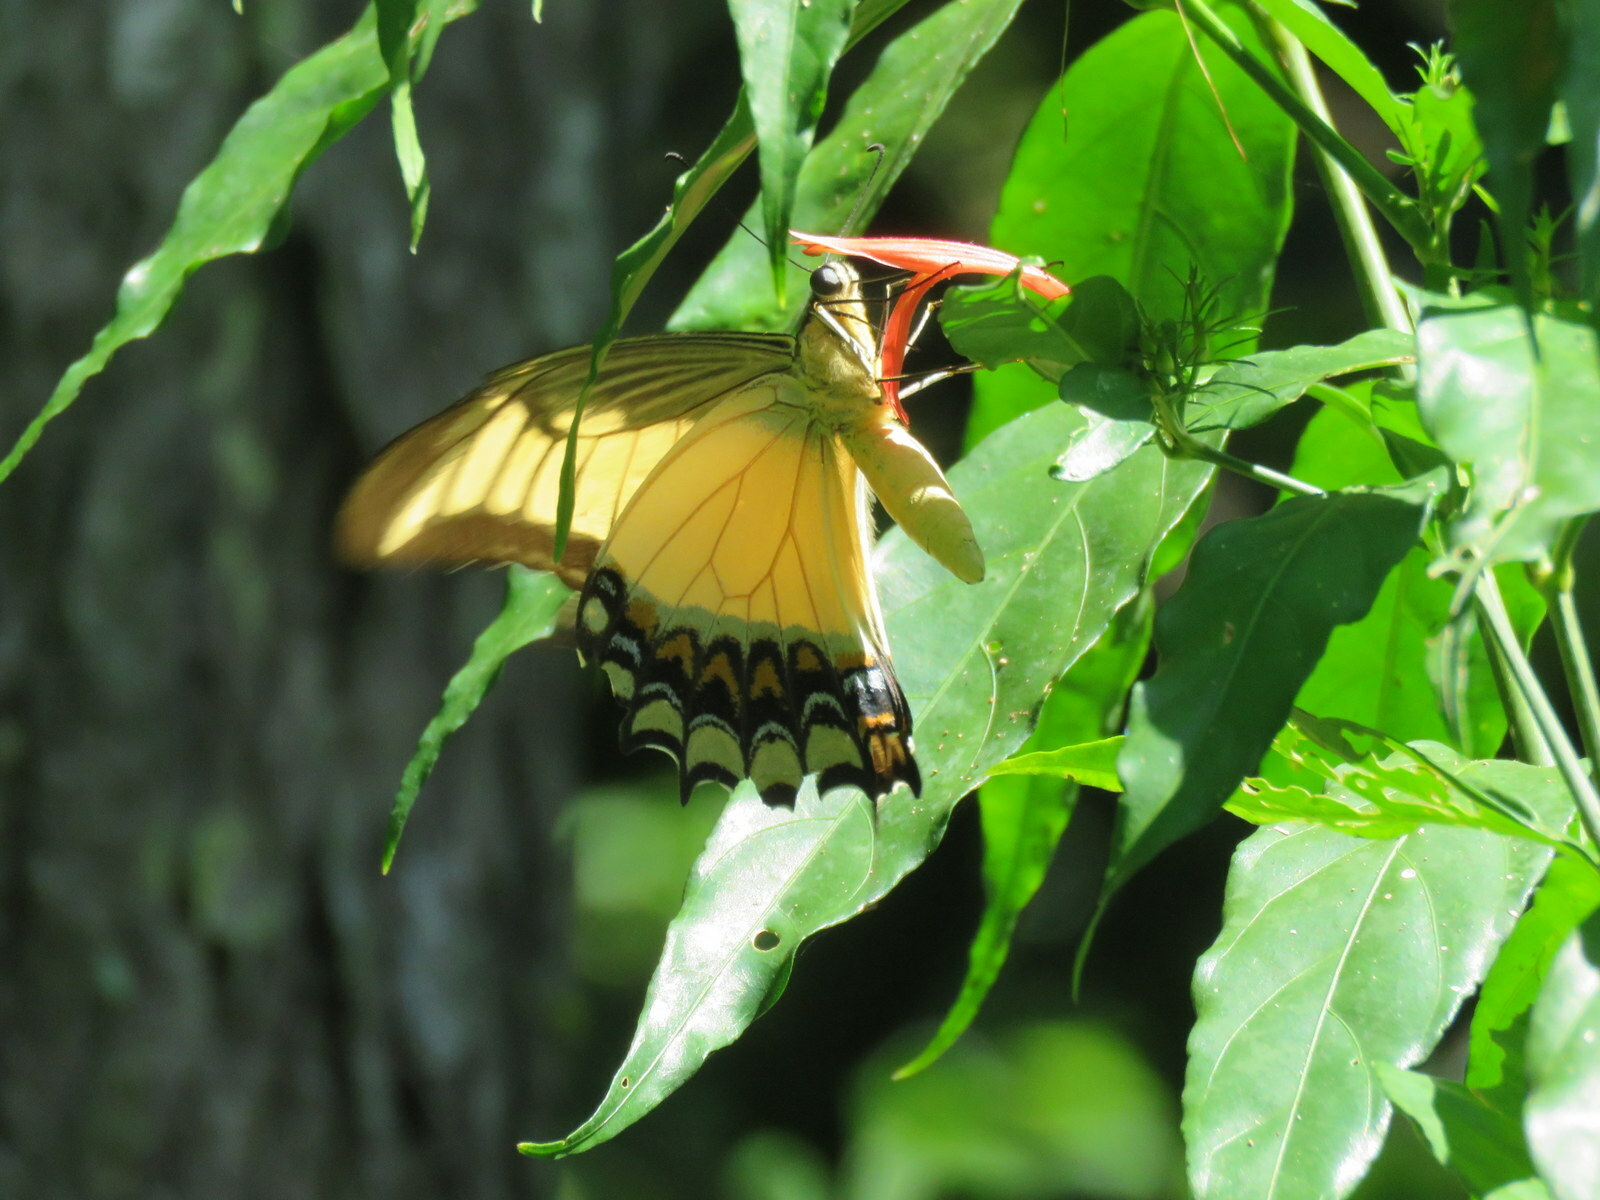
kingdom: Animalia
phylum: Arthropoda
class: Insecta
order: Lepidoptera
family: Papilionidae
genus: Papilio
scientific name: Papilio androgeus
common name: Androgeus swallowtail
